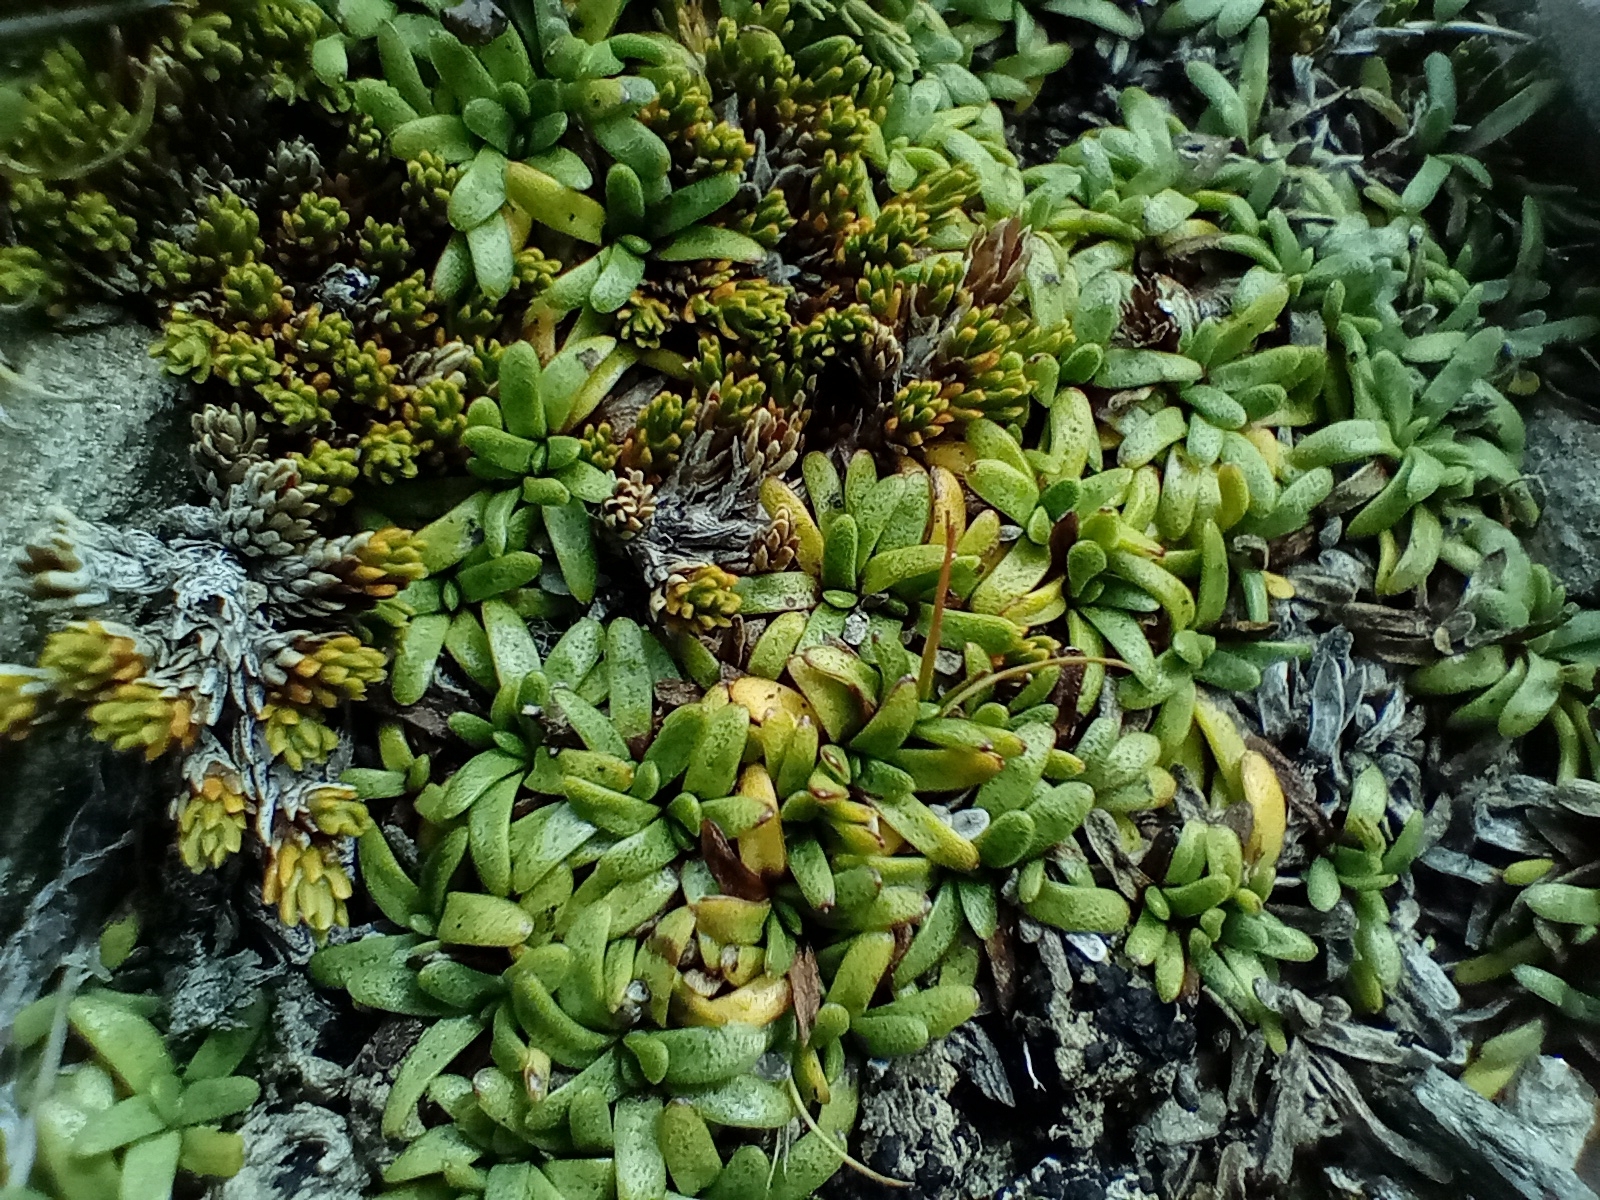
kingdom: Plantae
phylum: Tracheophyta
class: Magnoliopsida
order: Asterales
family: Asteraceae
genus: Abrotanella
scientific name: Abrotanella patearoa
